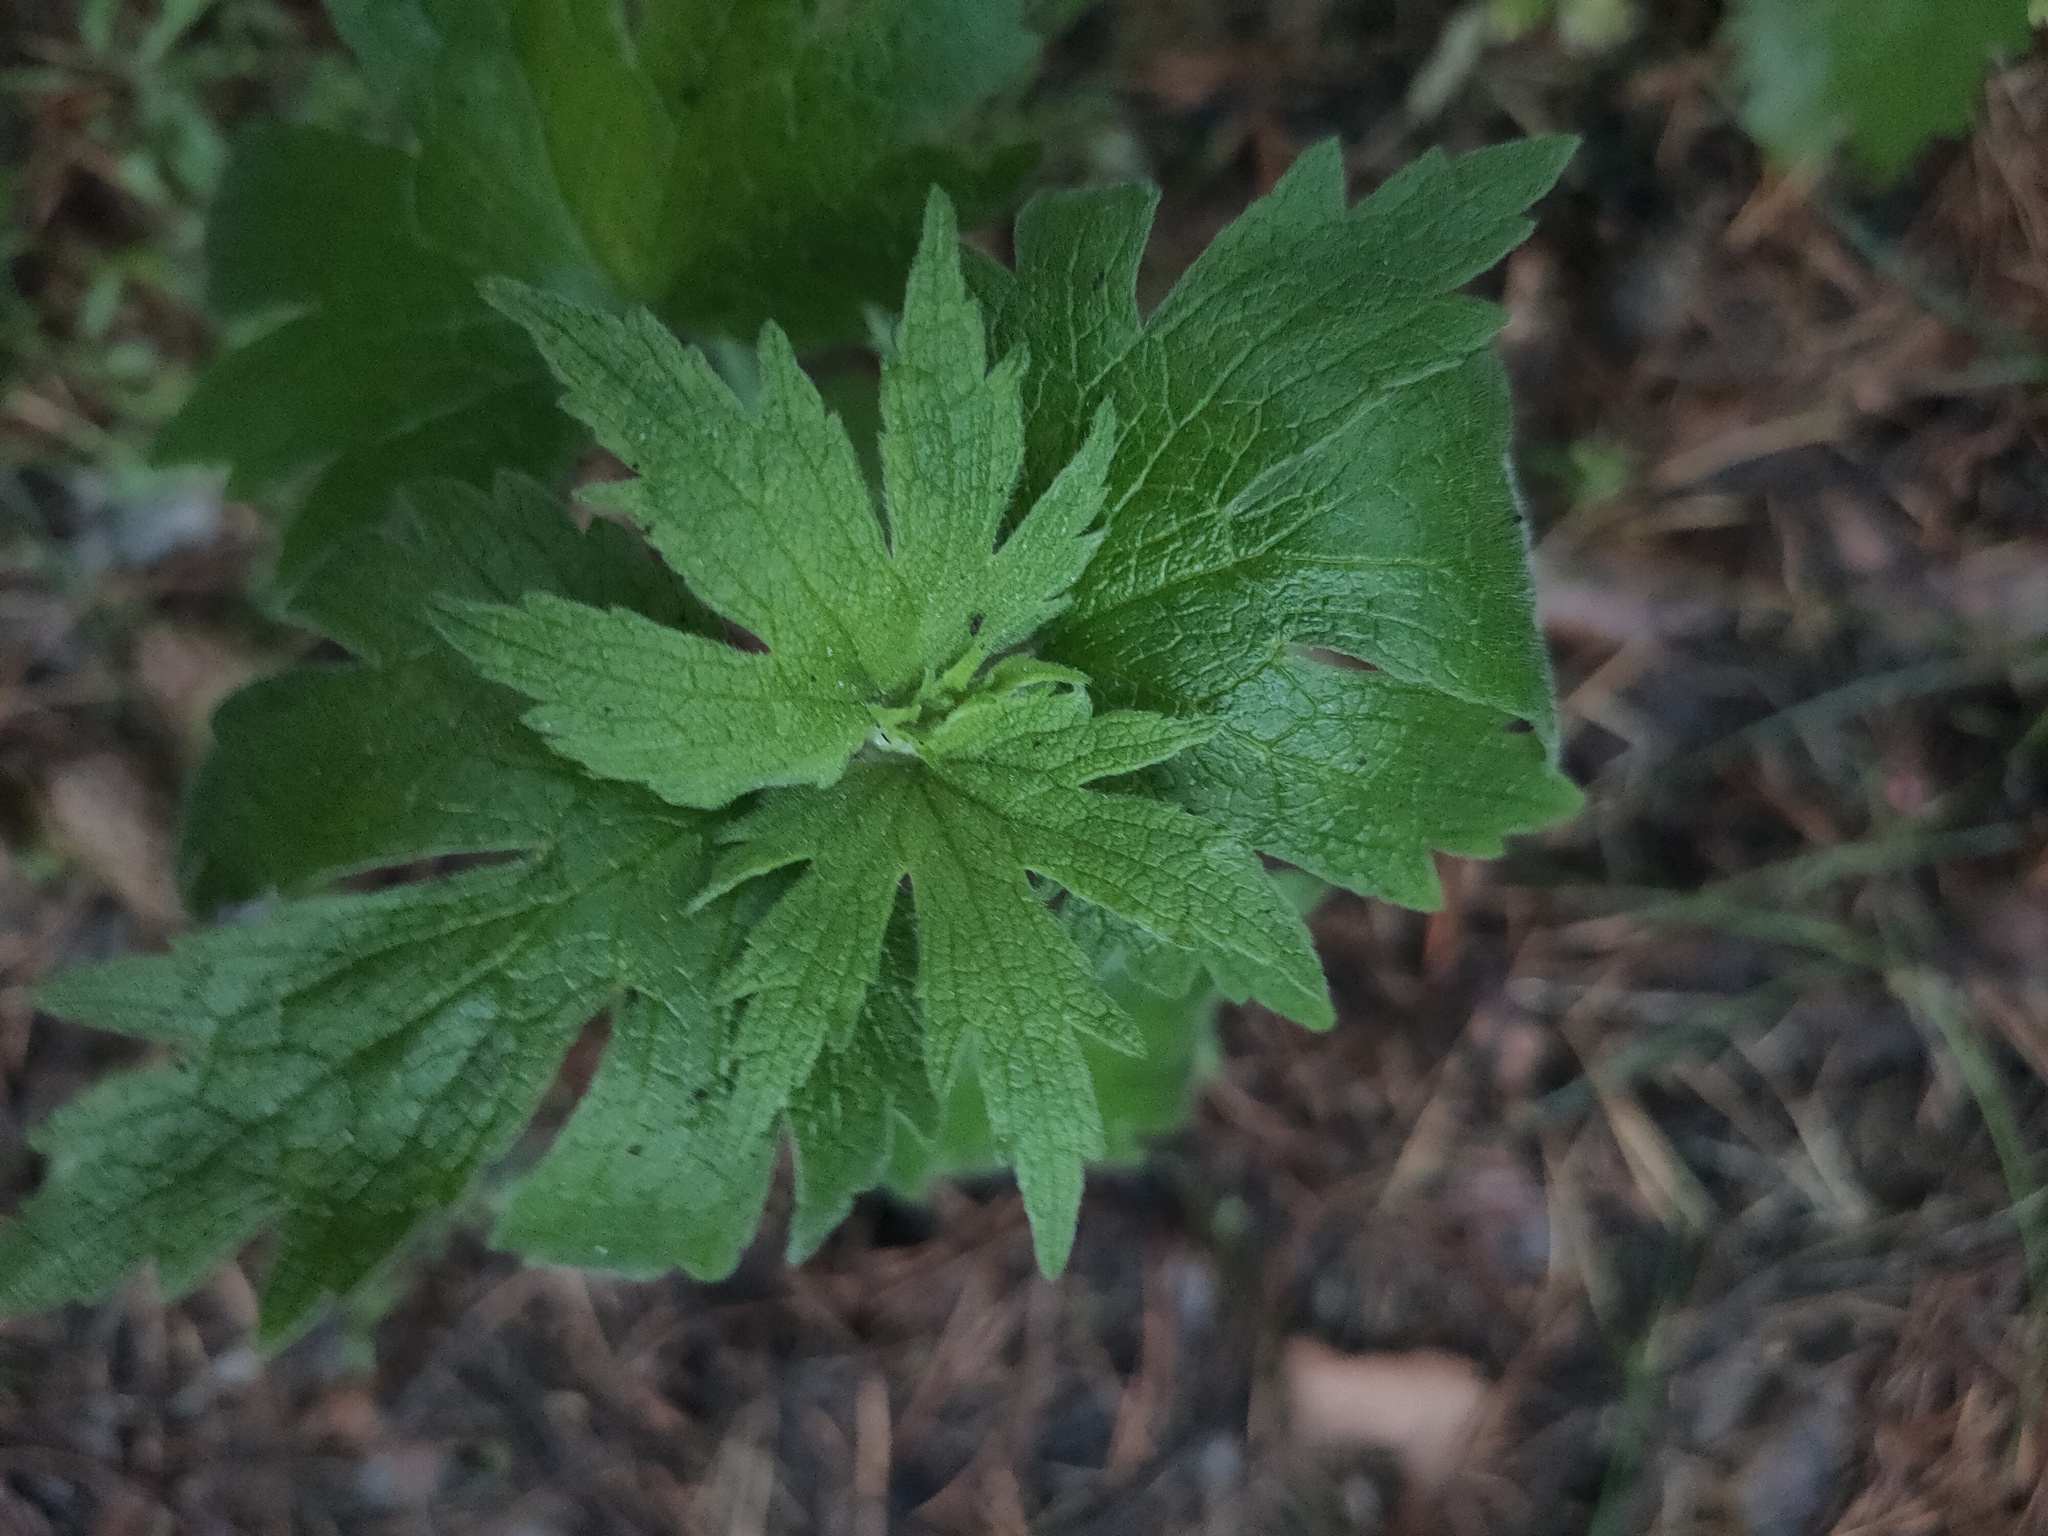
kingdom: Plantae
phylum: Tracheophyta
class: Magnoliopsida
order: Lamiales
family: Lamiaceae
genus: Leonurus
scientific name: Leonurus quinquelobatus
